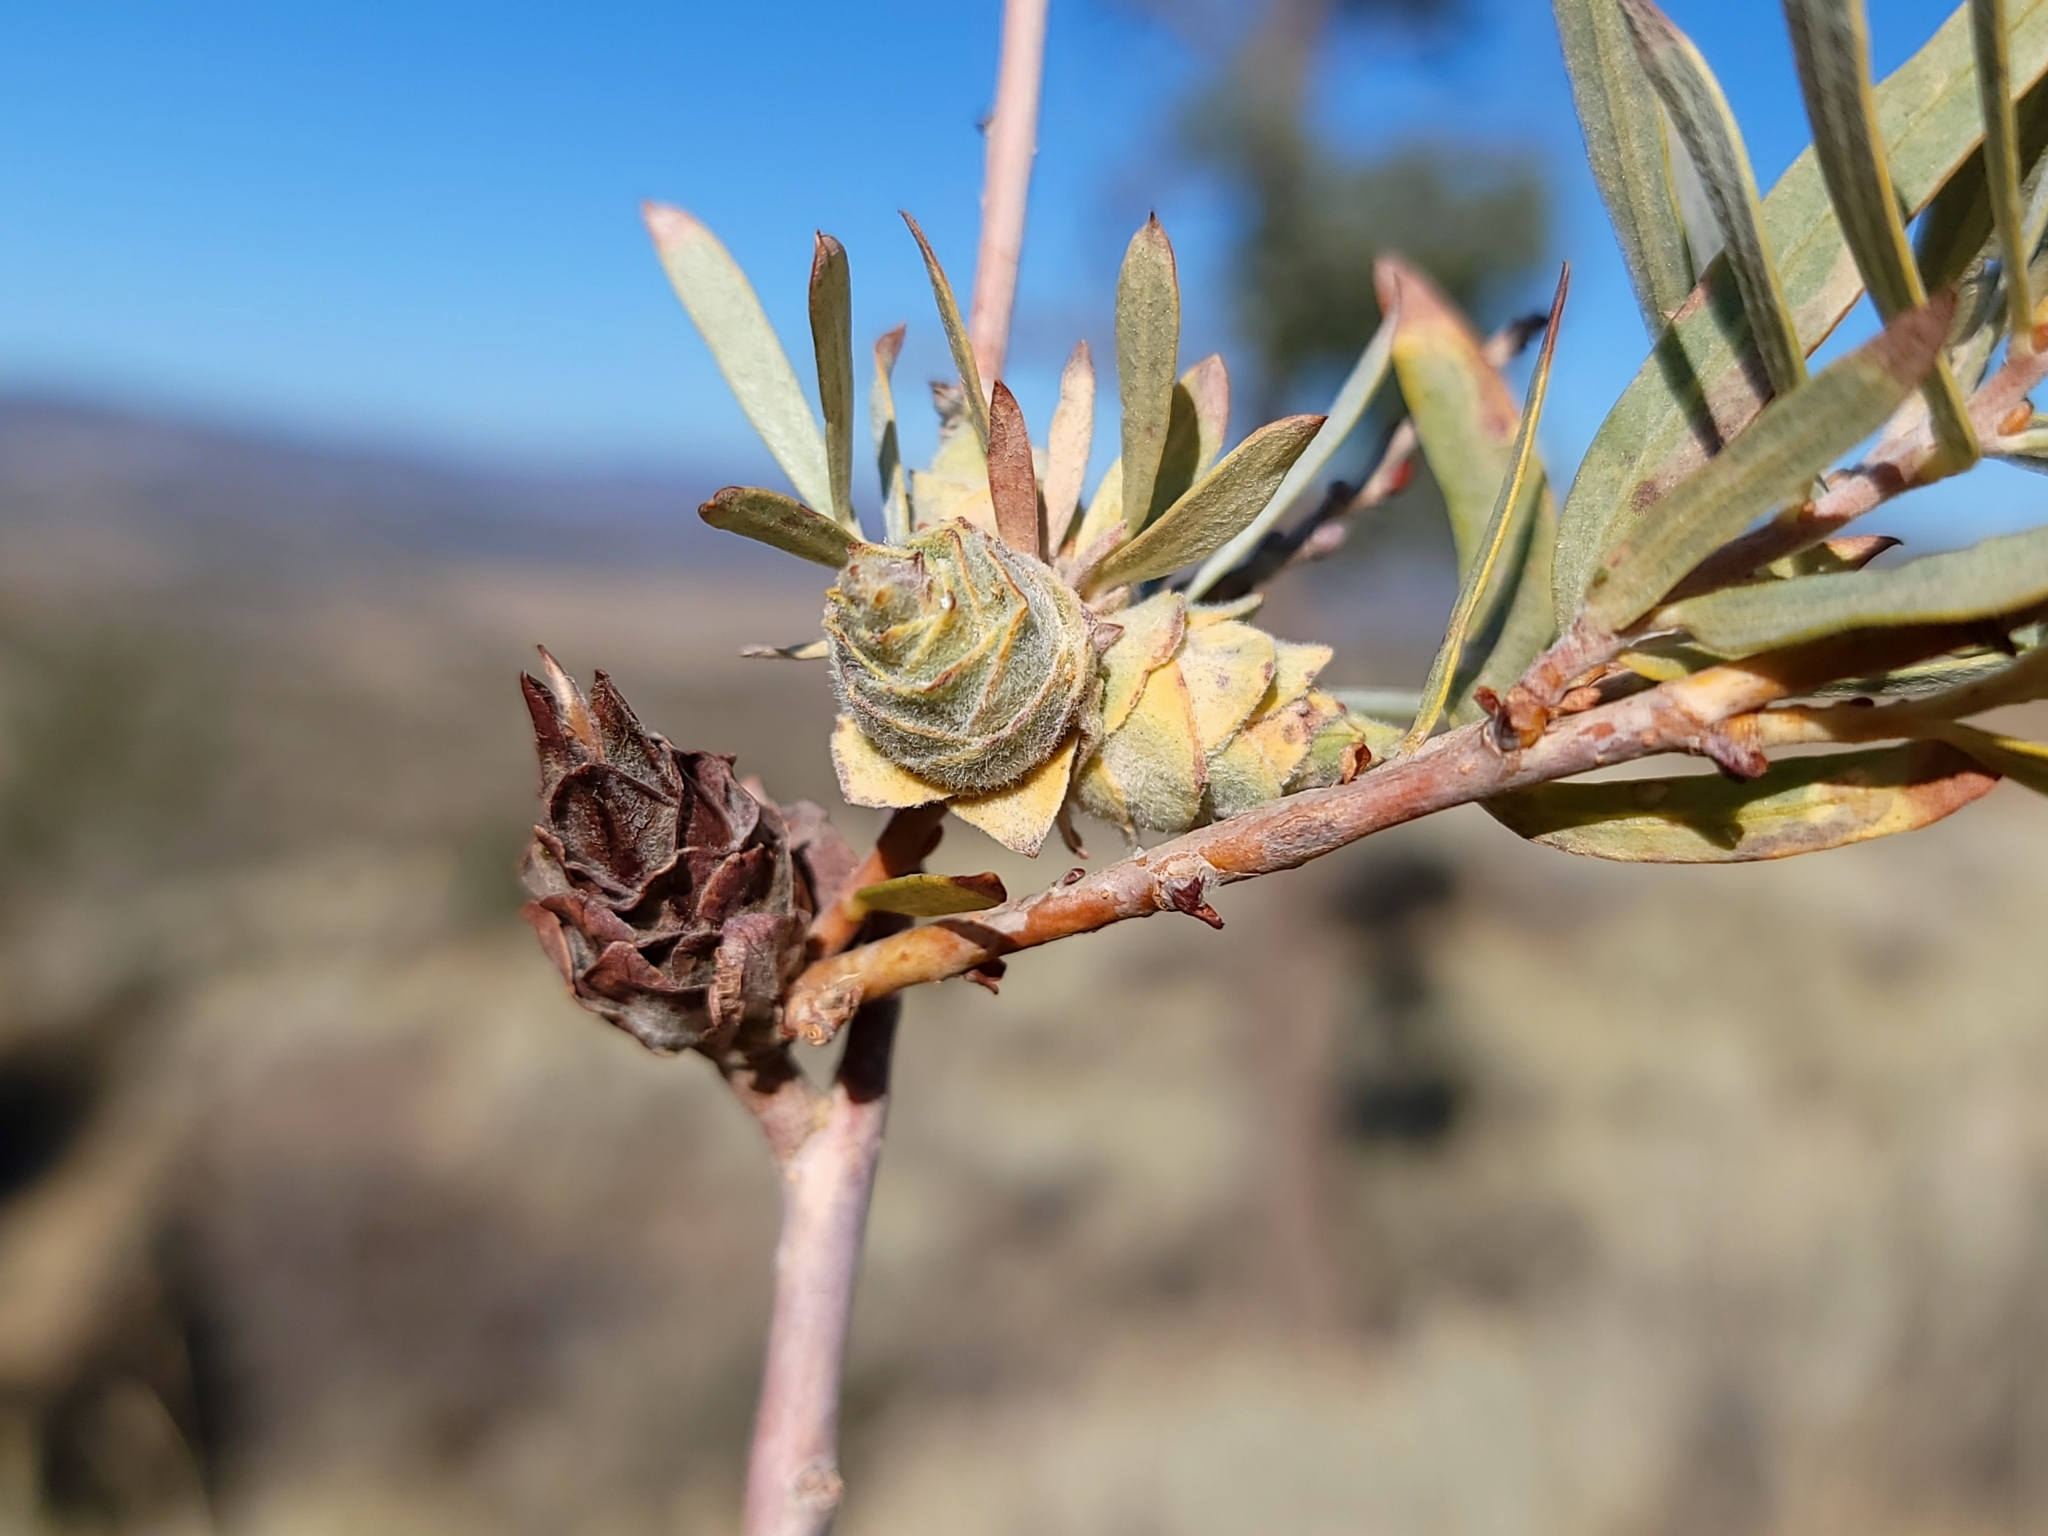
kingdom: Animalia
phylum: Arthropoda
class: Insecta
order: Diptera
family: Cecidomyiidae
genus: Rabdophaga
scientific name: Rabdophaga strobiloides
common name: Willow pinecone gall midge
